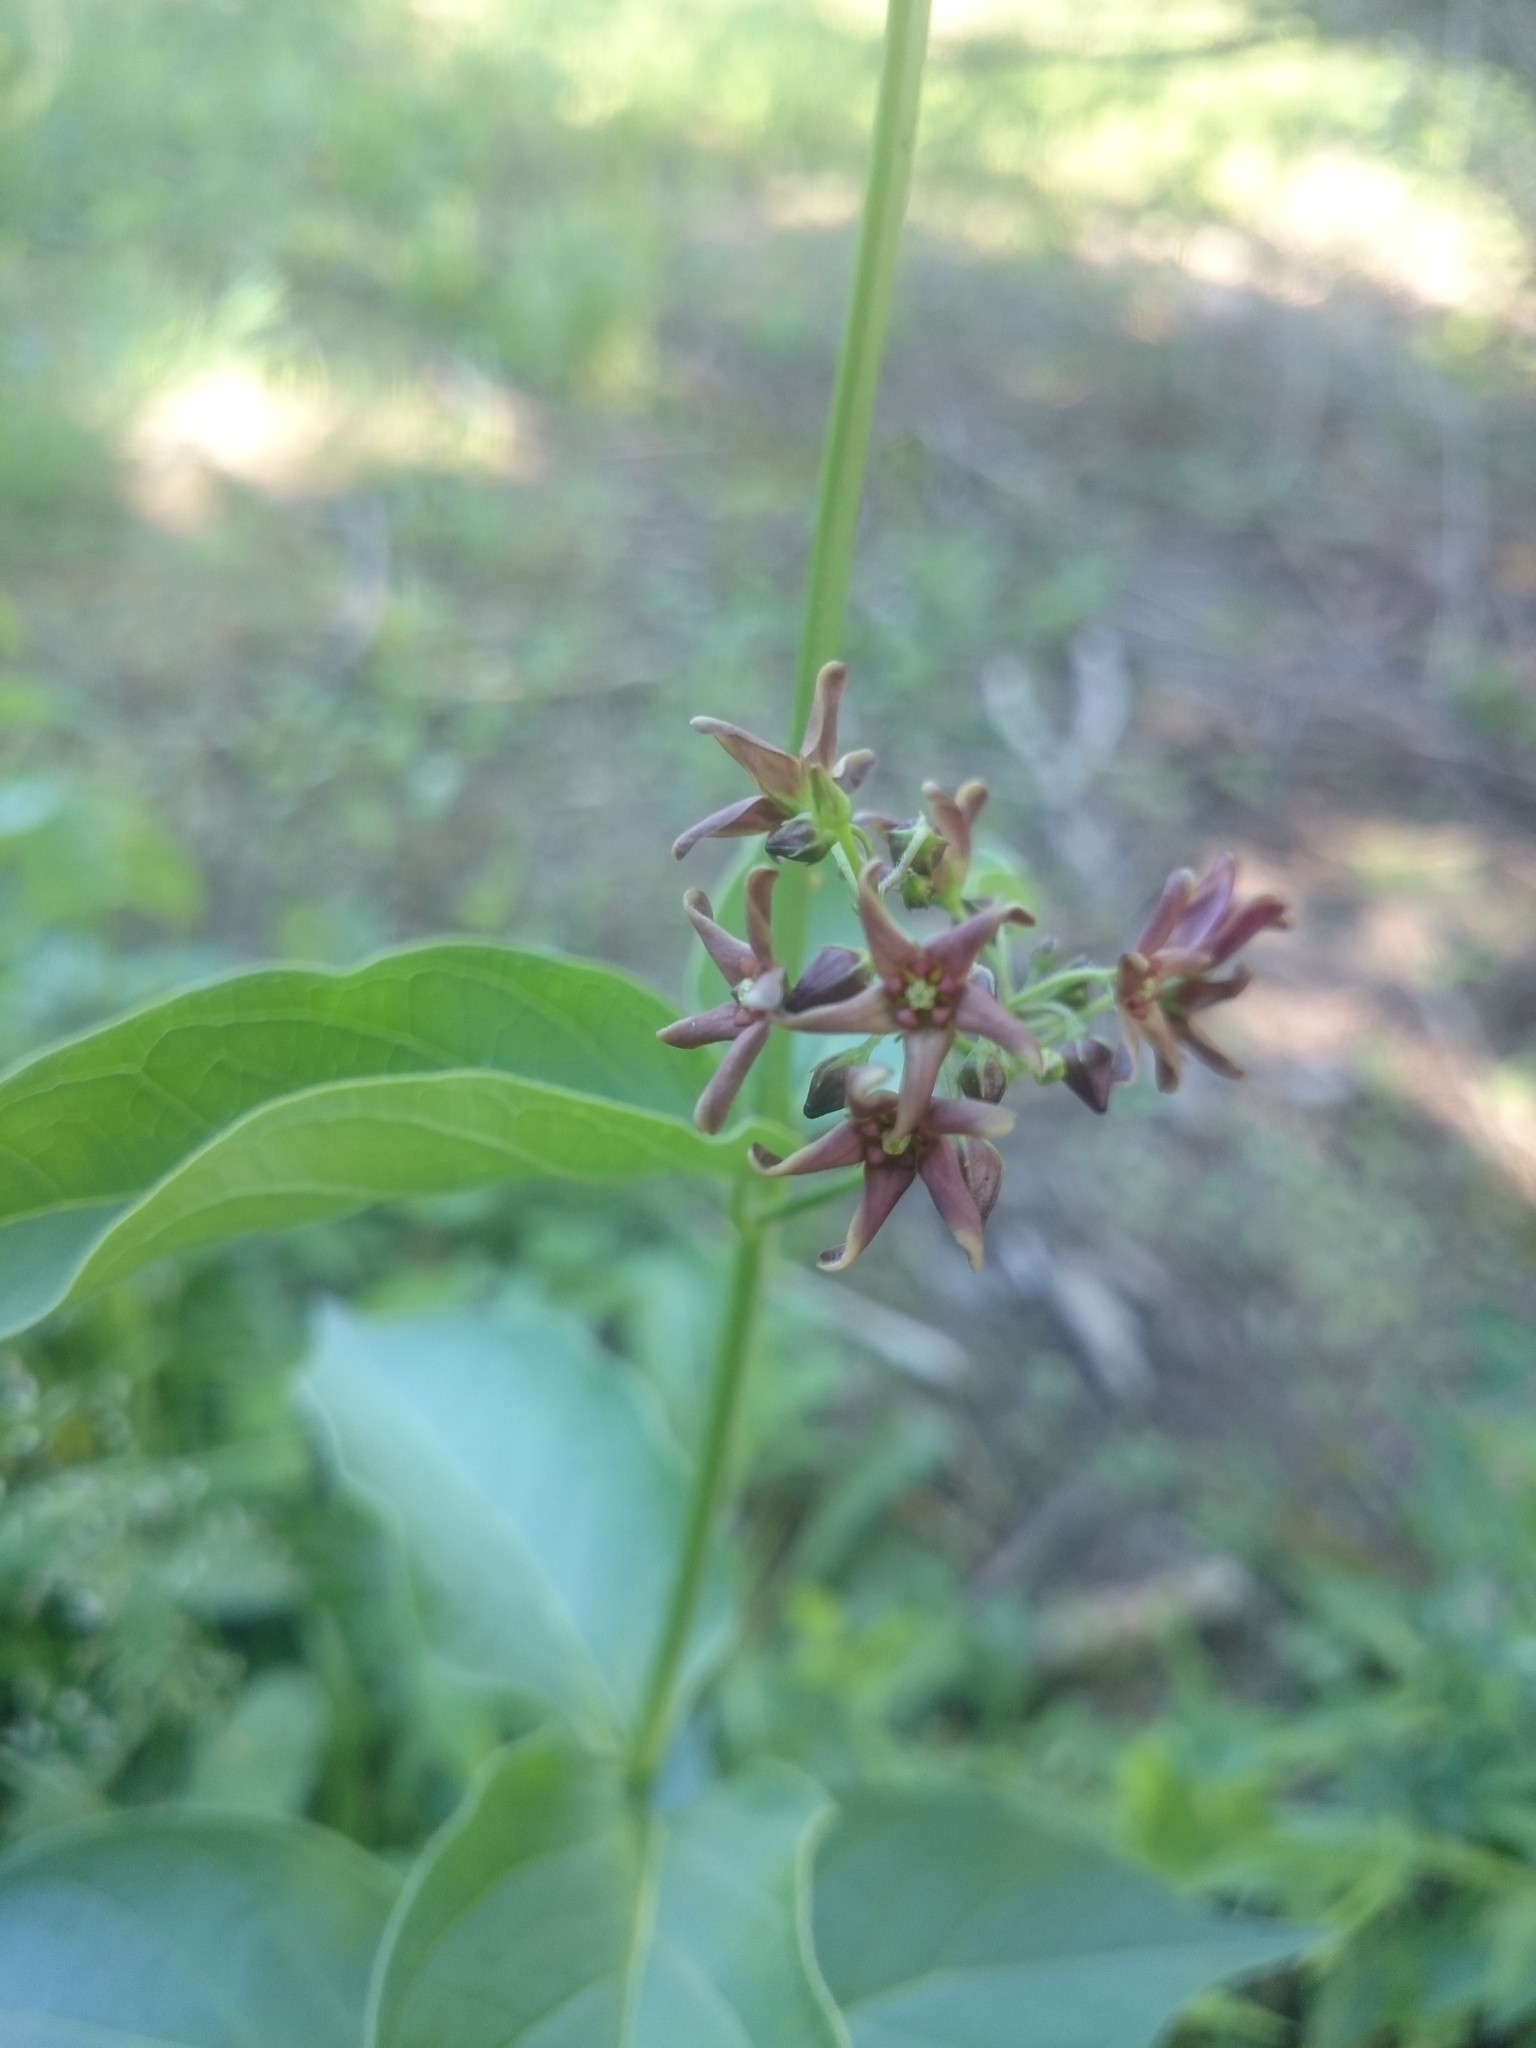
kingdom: Plantae
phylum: Tracheophyta
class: Magnoliopsida
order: Gentianales
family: Apocynaceae
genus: Vincetoxicum
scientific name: Vincetoxicum rossicum
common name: Dog-strangling vine
